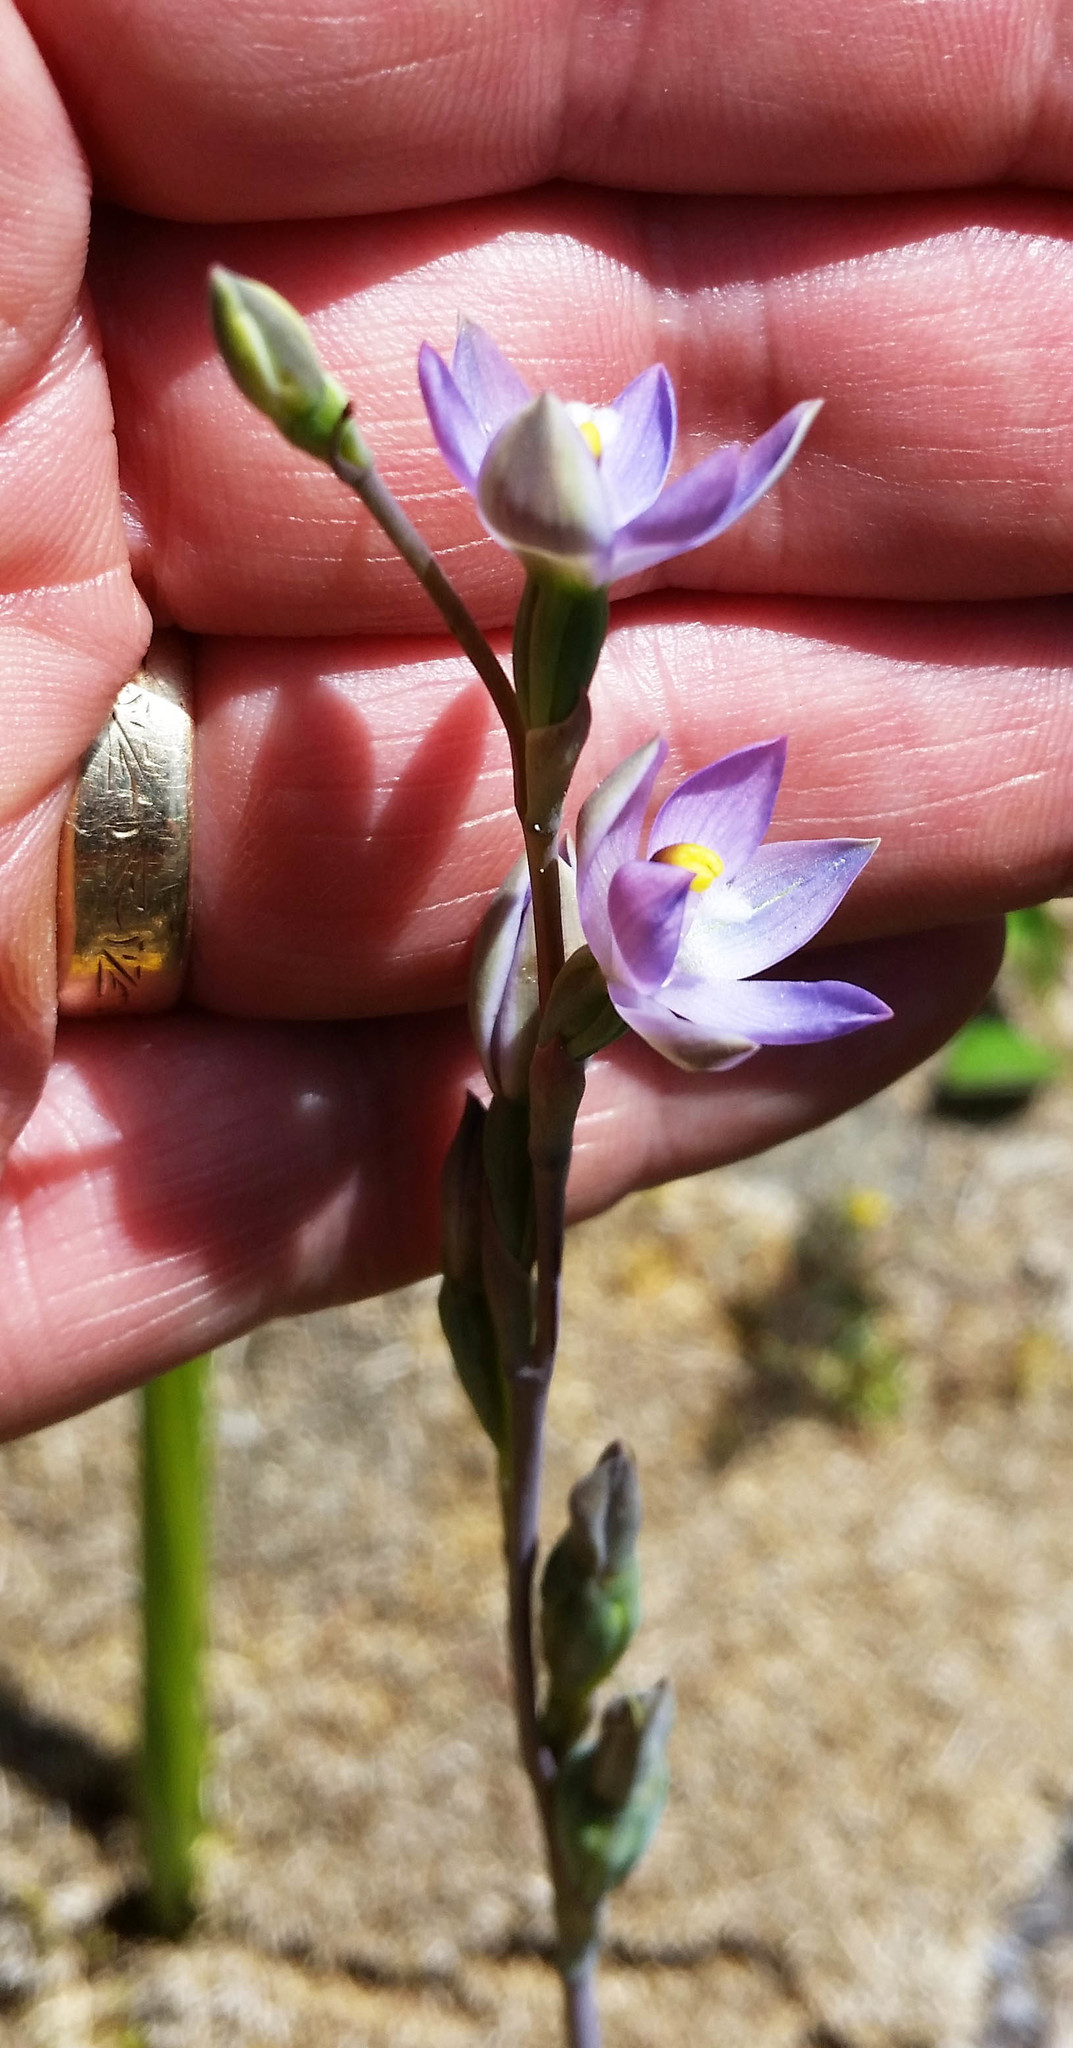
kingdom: Plantae
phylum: Tracheophyta
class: Liliopsida
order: Asparagales
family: Orchidaceae
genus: Thelymitra
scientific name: Thelymitra pauciflora
